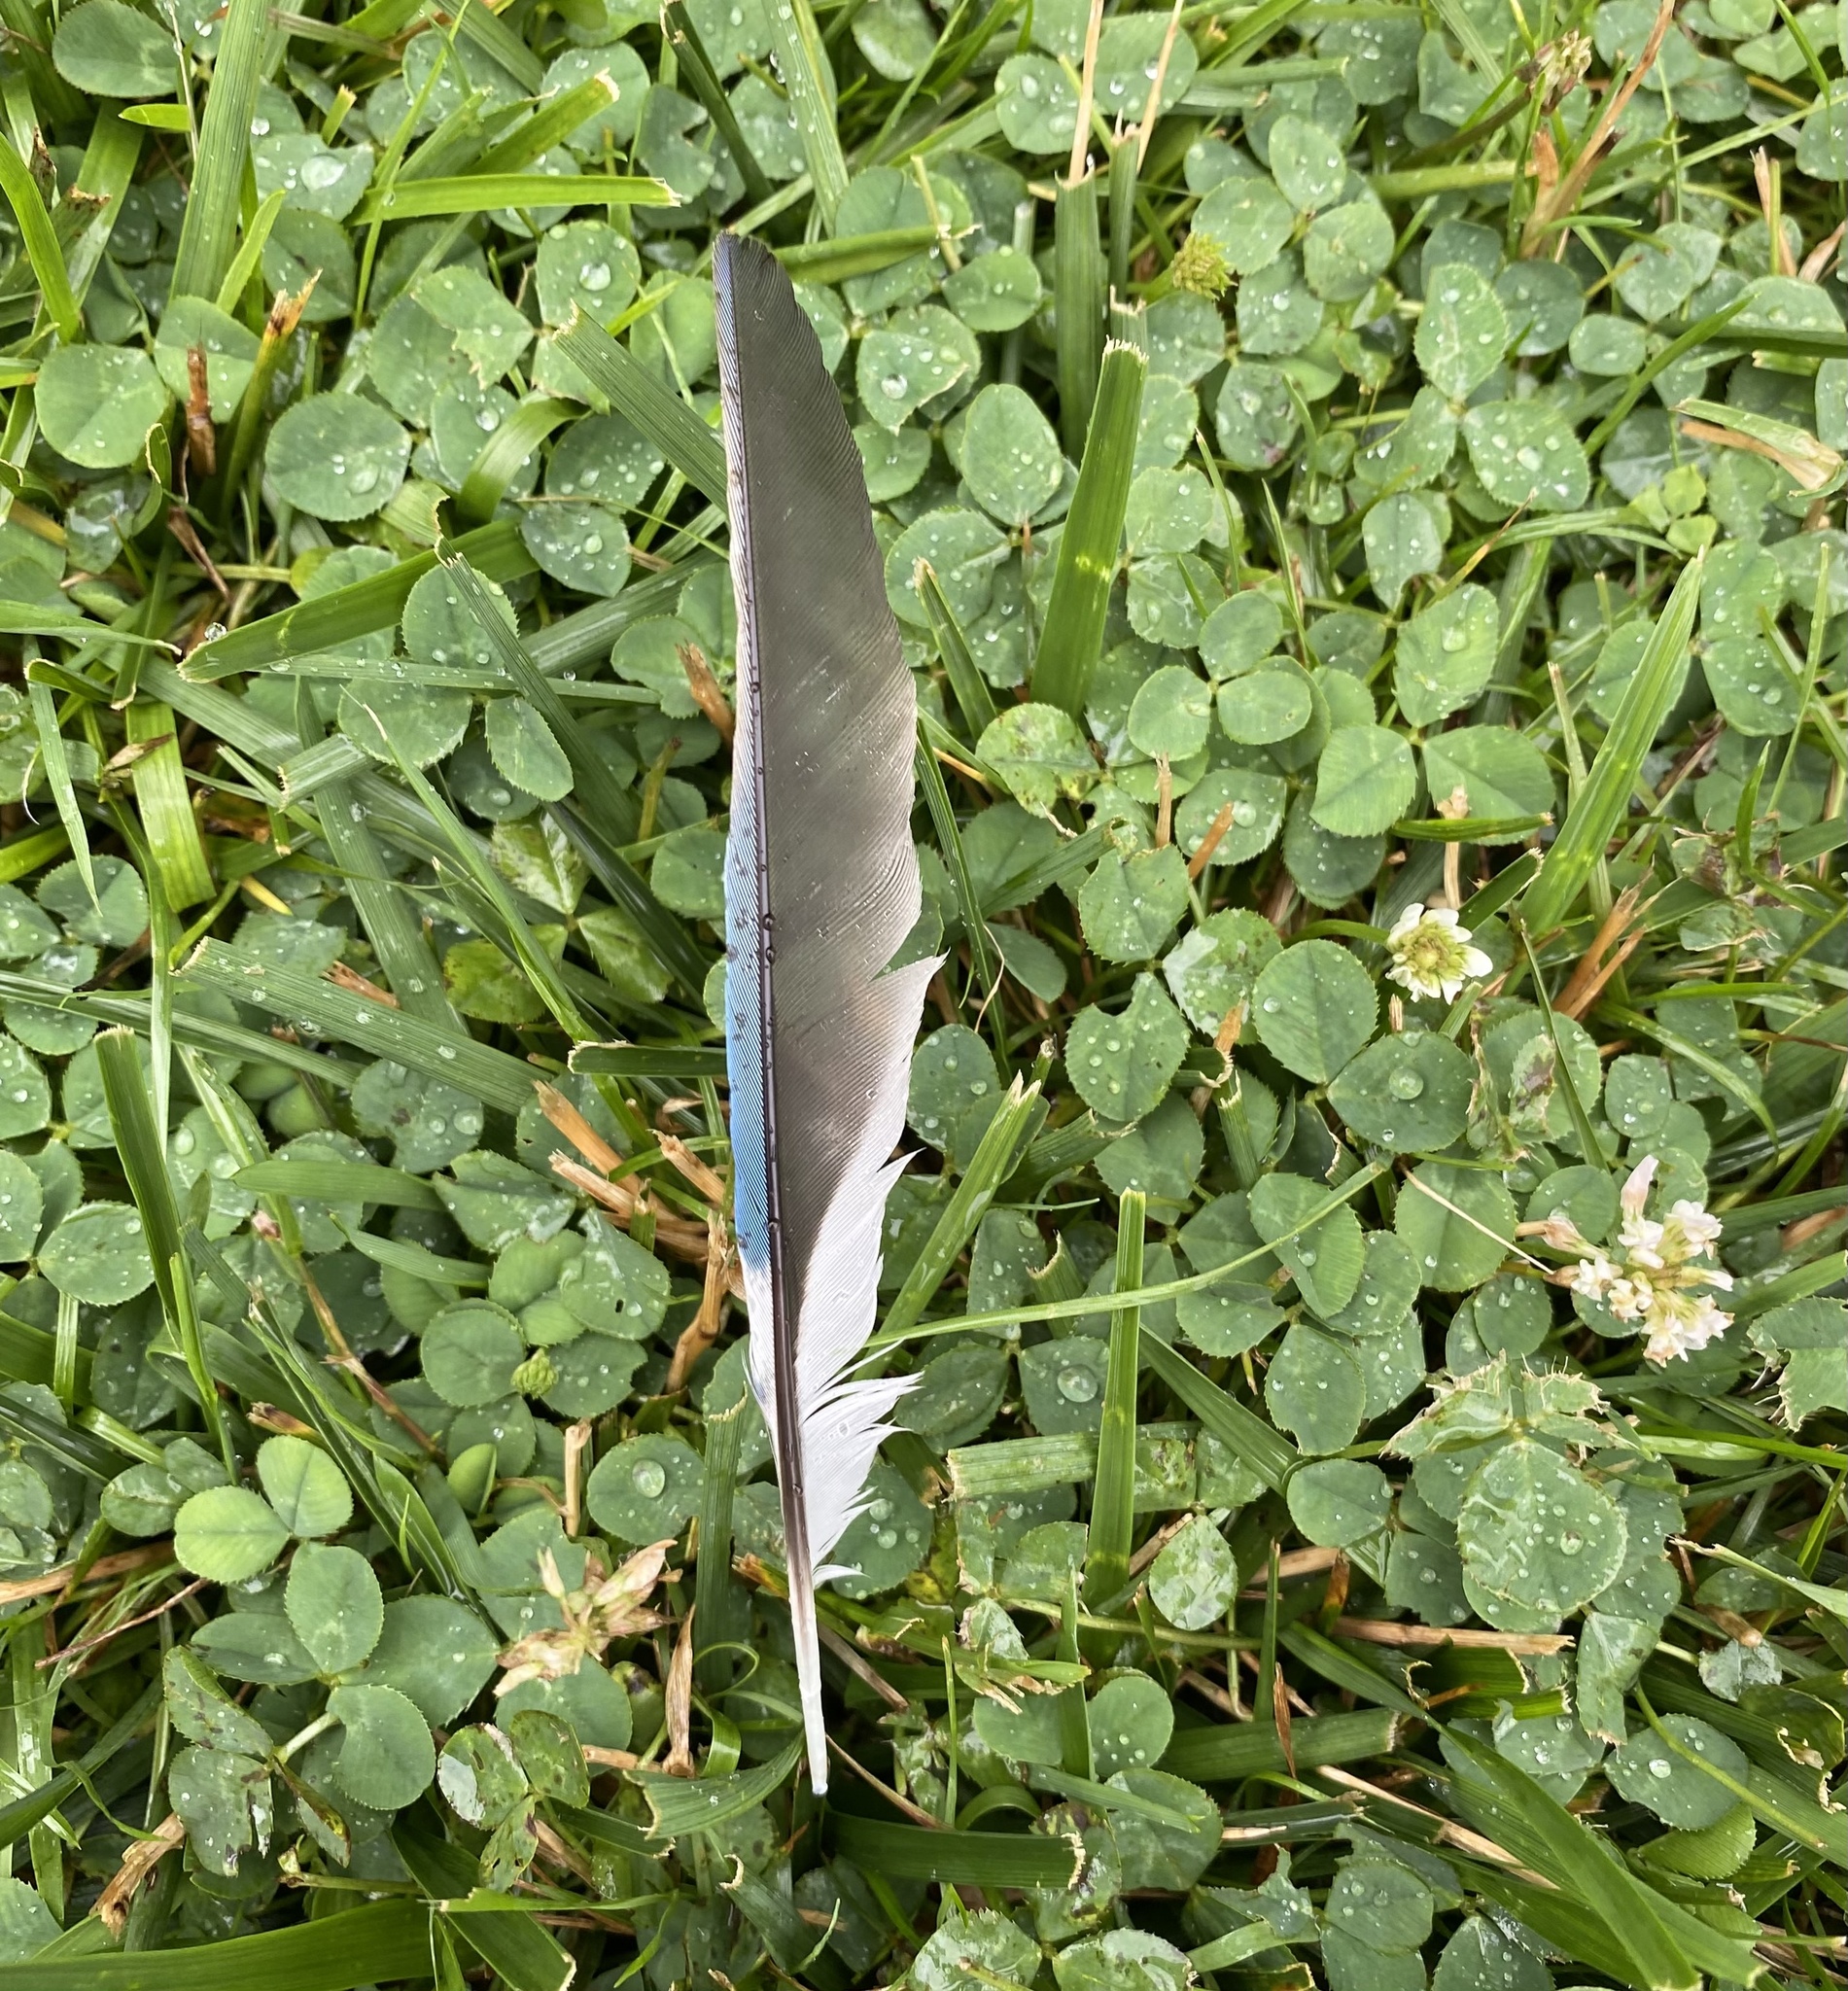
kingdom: Animalia
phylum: Chordata
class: Aves
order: Passeriformes
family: Corvidae
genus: Cyanocitta
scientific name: Cyanocitta cristata
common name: Blue jay
